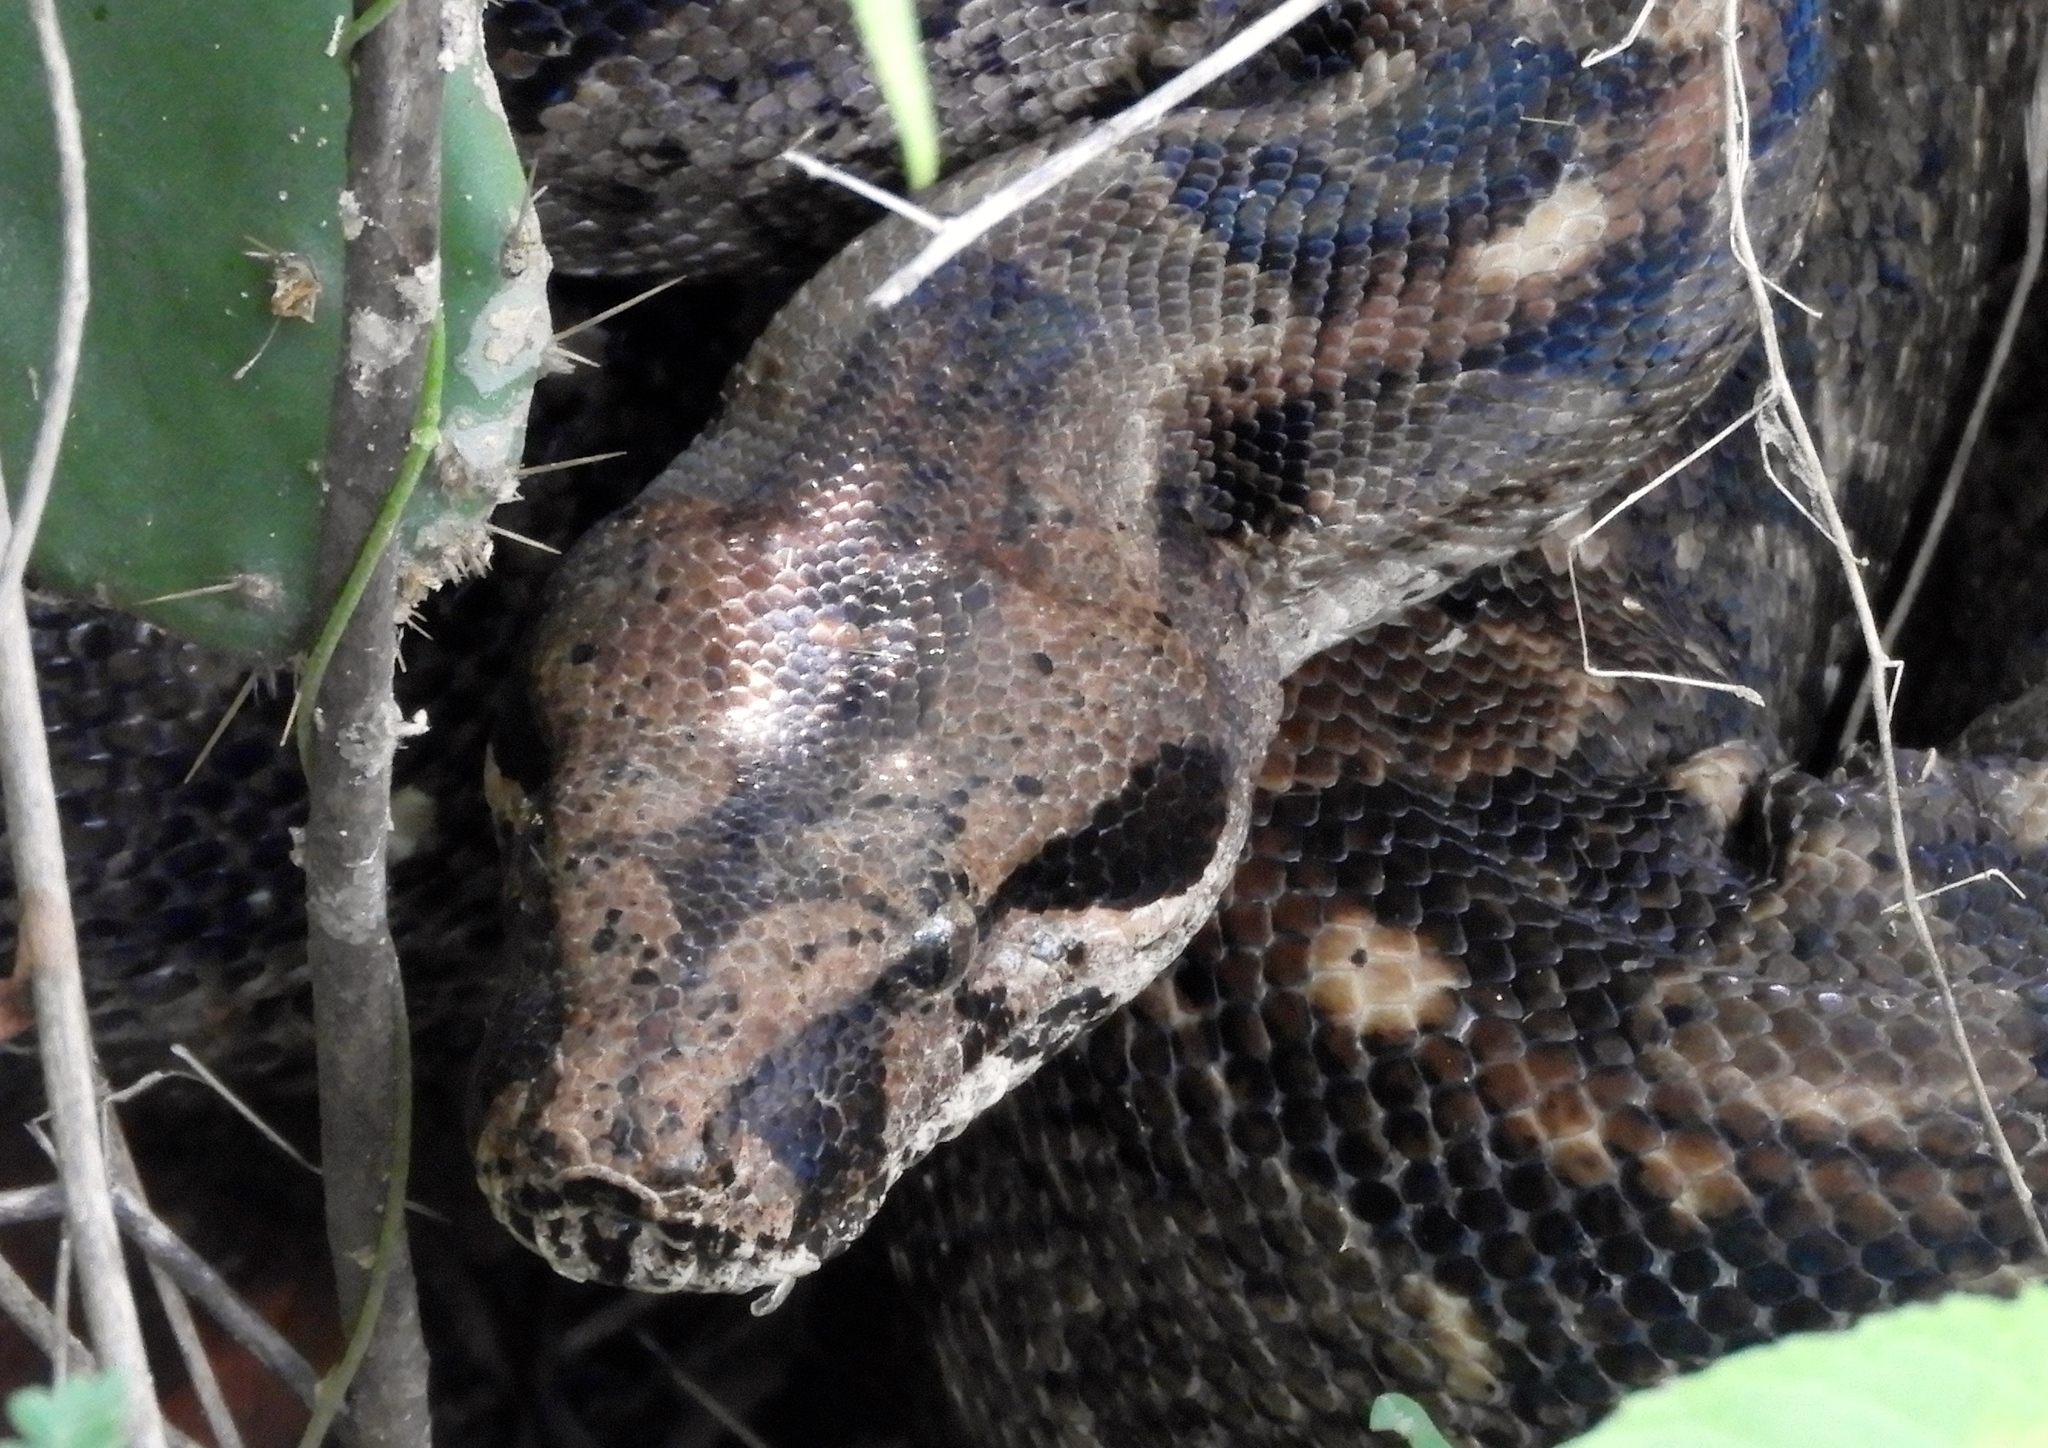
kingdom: Animalia
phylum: Chordata
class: Squamata
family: Boidae
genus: Boa
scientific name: Boa
